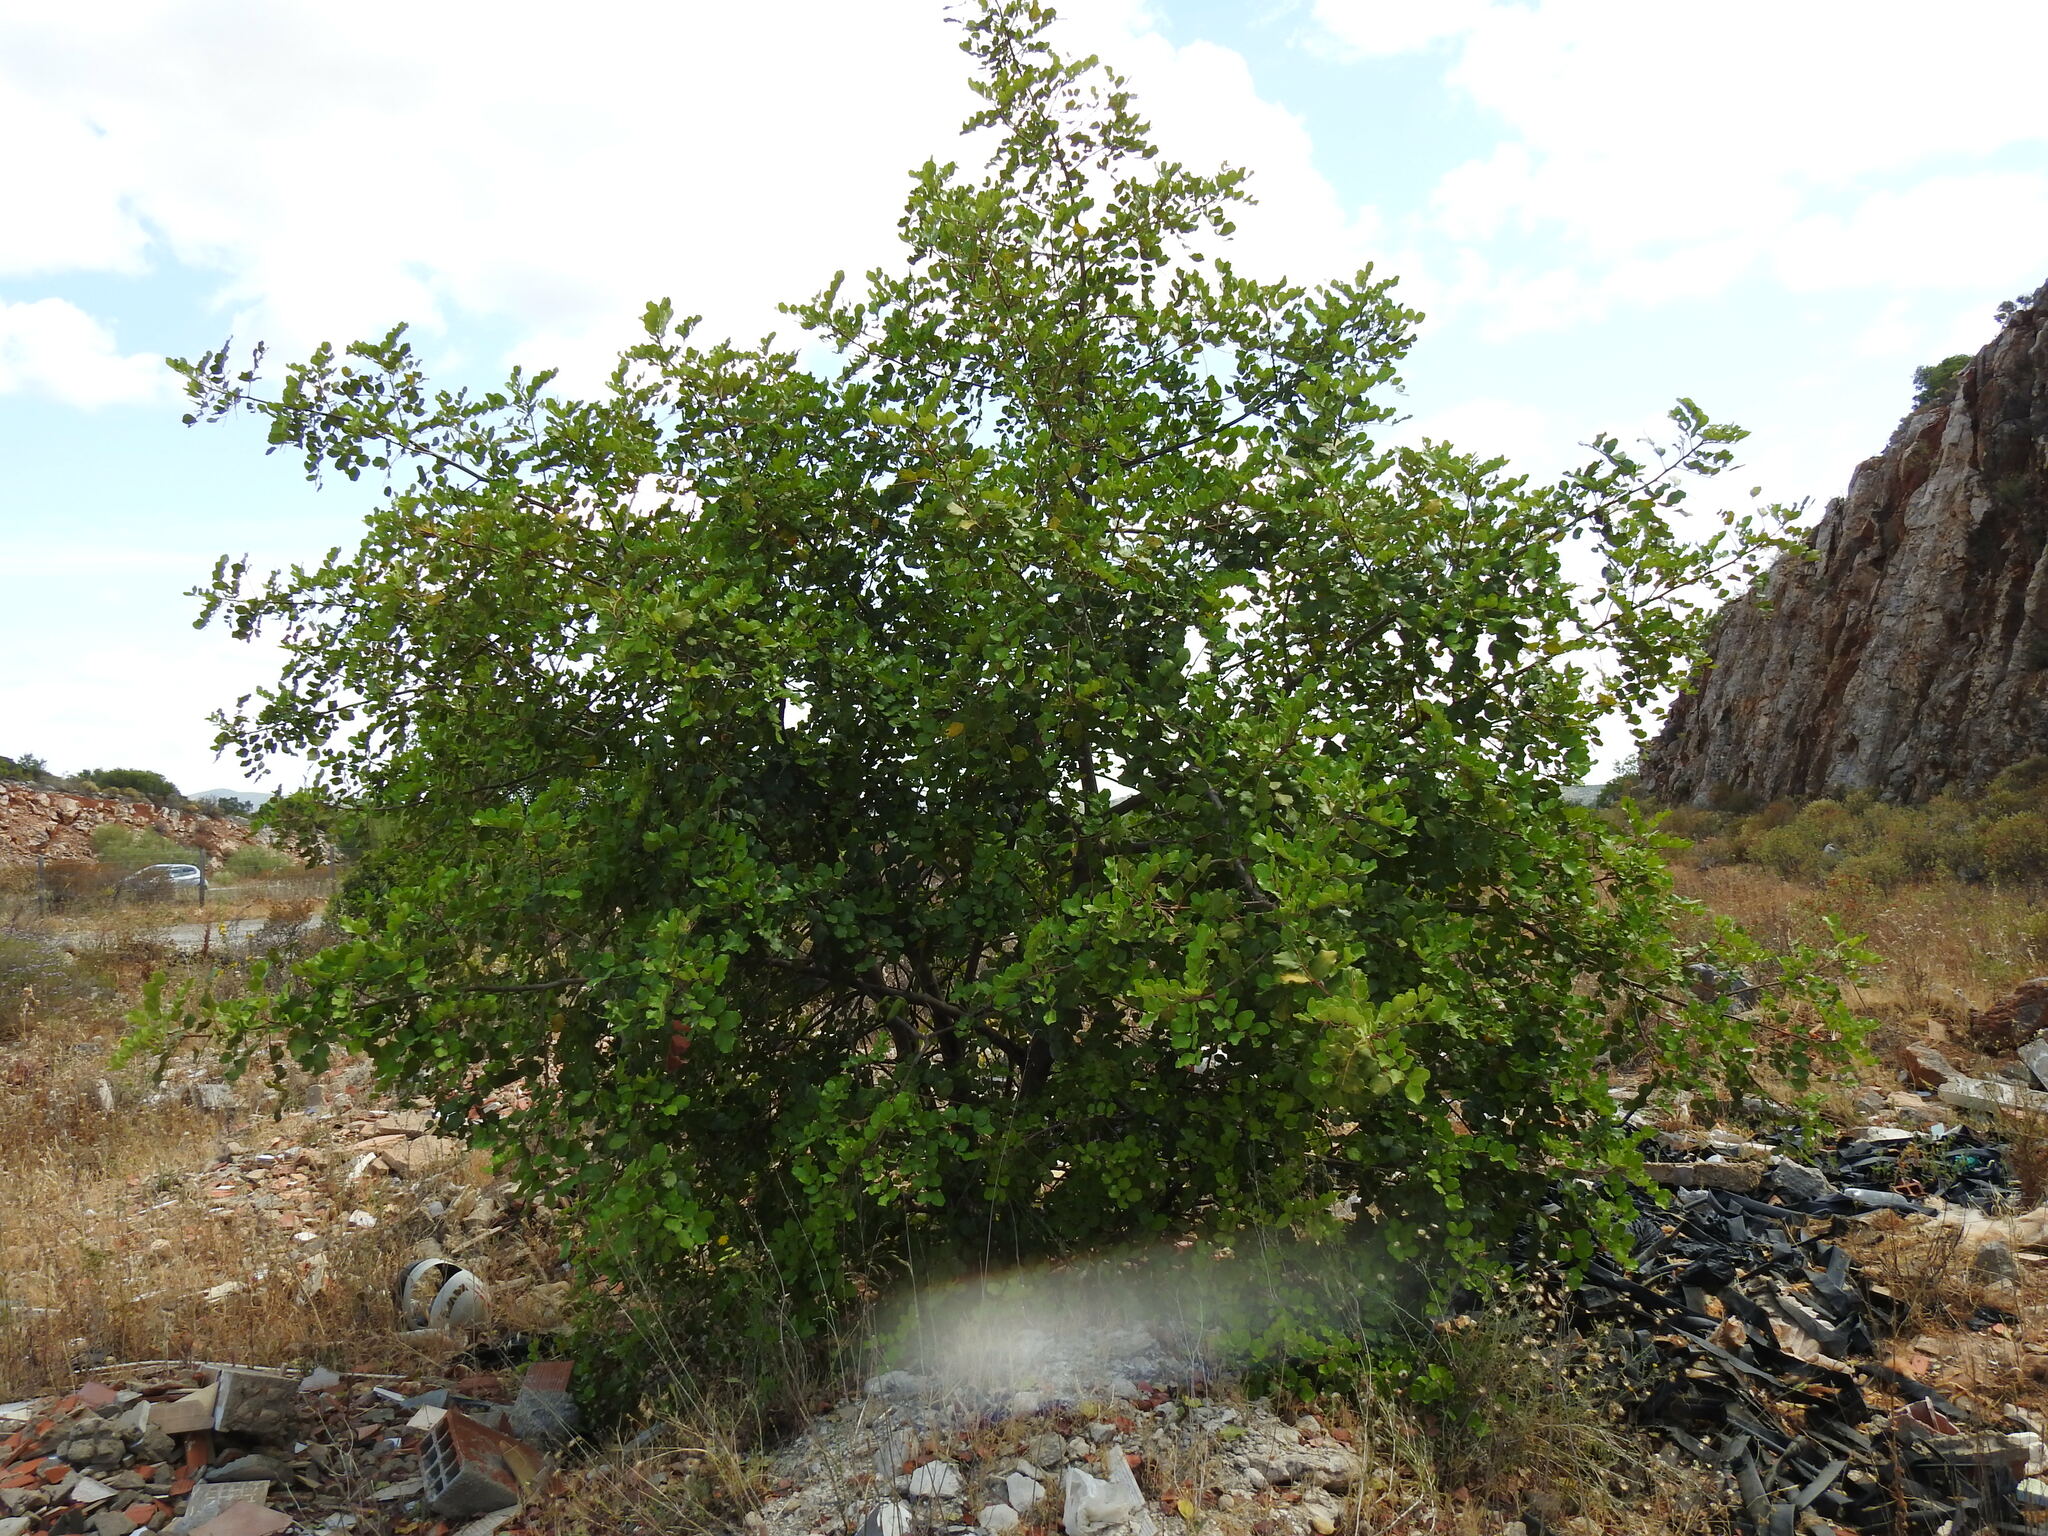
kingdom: Plantae
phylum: Tracheophyta
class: Magnoliopsida
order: Fabales
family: Fabaceae
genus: Ceratonia
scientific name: Ceratonia siliqua
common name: Carob
